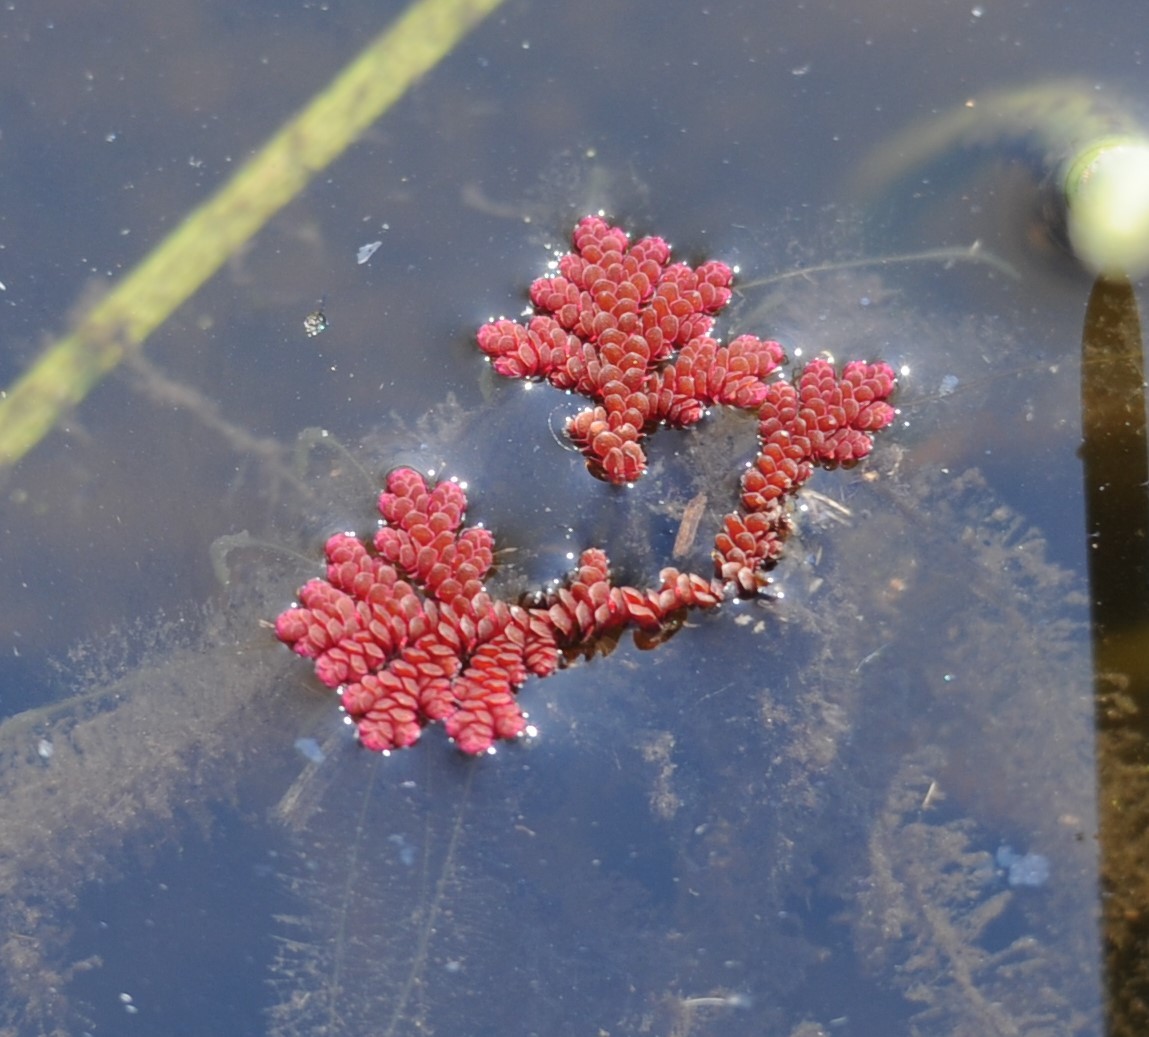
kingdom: Plantae
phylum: Tracheophyta
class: Polypodiopsida
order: Salviniales
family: Salviniaceae
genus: Azolla
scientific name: Azolla filiculoides
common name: Water fern
